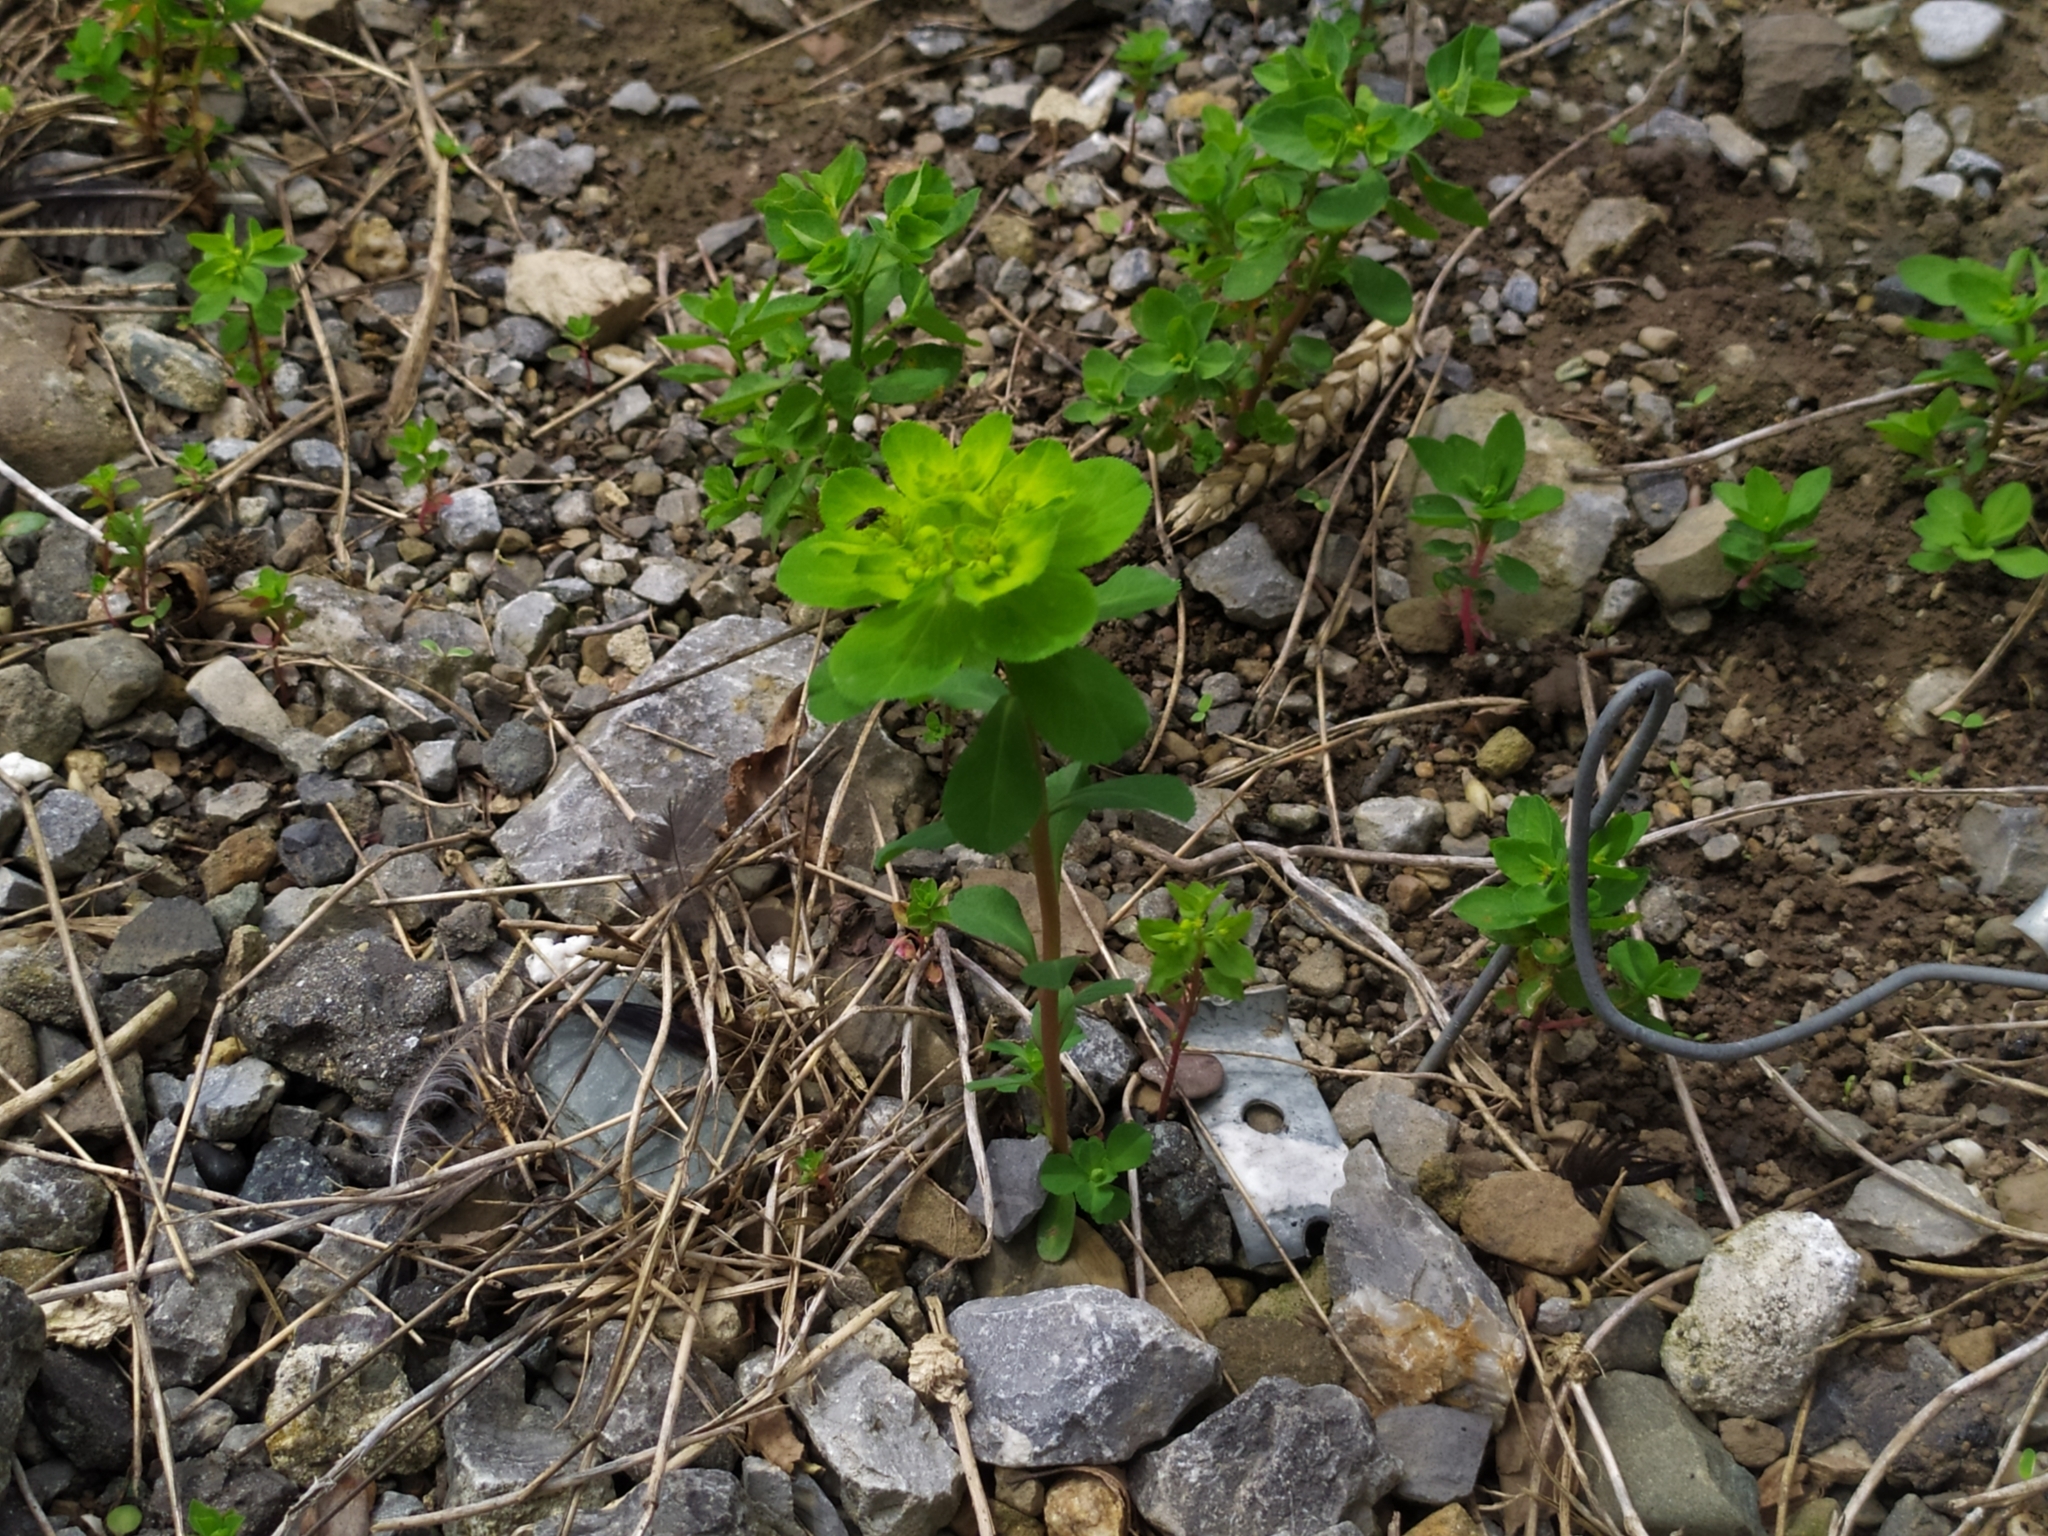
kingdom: Plantae
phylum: Tracheophyta
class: Magnoliopsida
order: Malpighiales
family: Euphorbiaceae
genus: Euphorbia
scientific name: Euphorbia helioscopia
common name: Sun spurge
